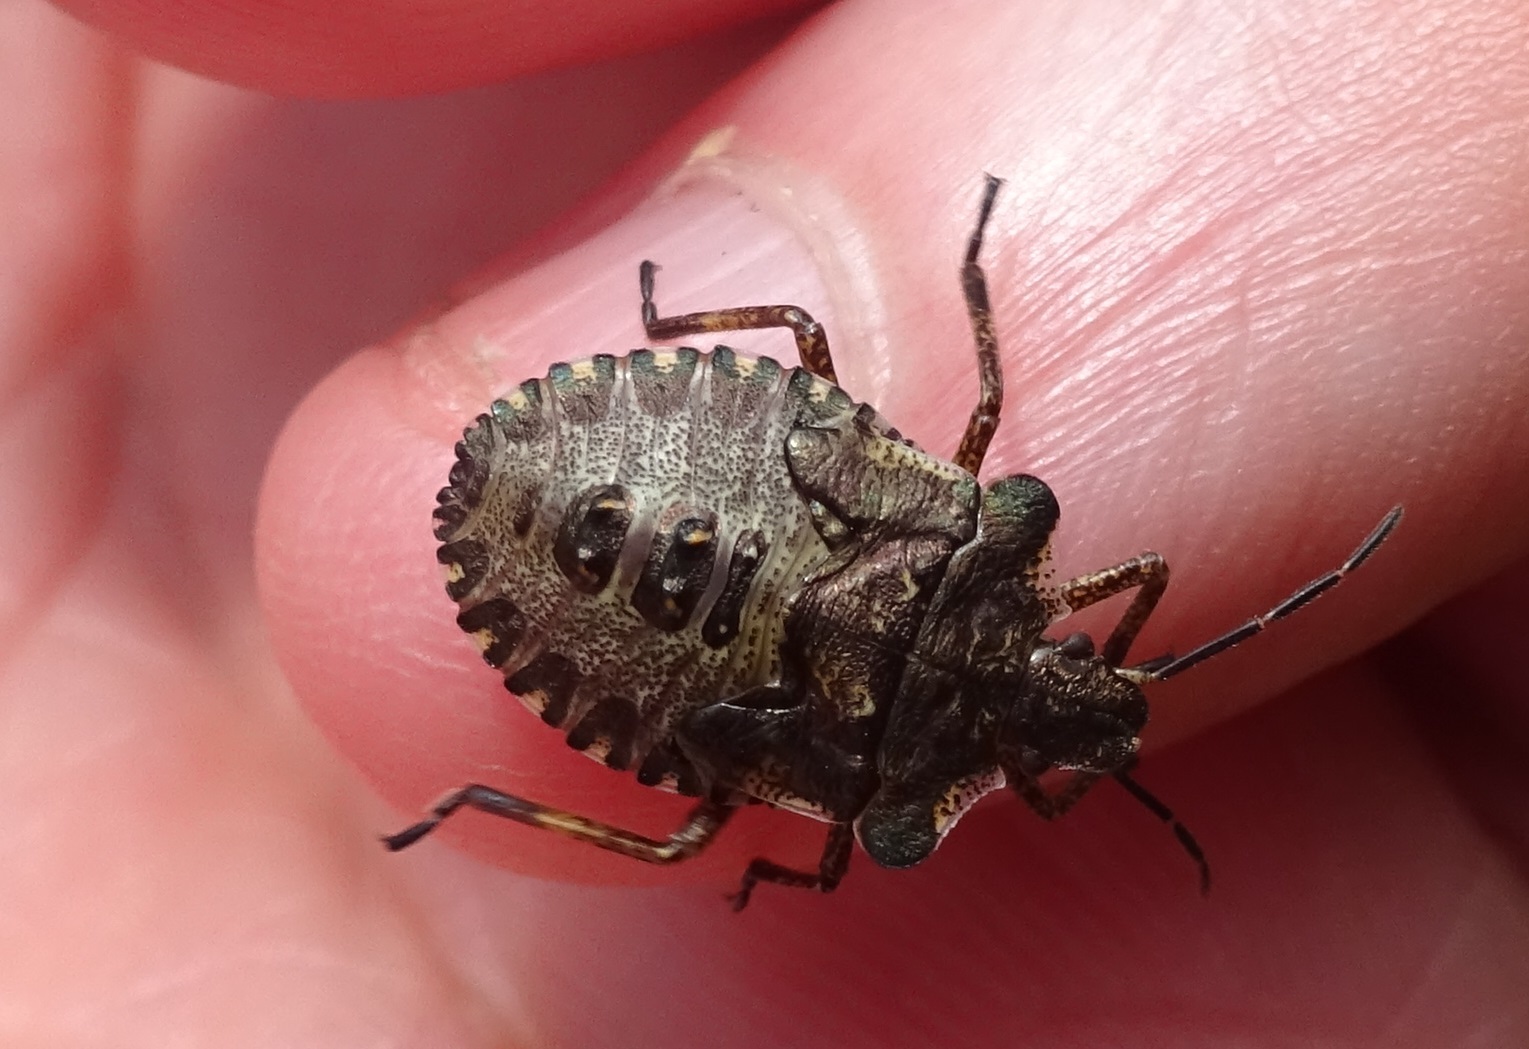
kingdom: Animalia
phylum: Arthropoda
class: Insecta
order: Hemiptera
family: Pentatomidae
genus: Pentatoma
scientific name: Pentatoma rufipes
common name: Forest bug
